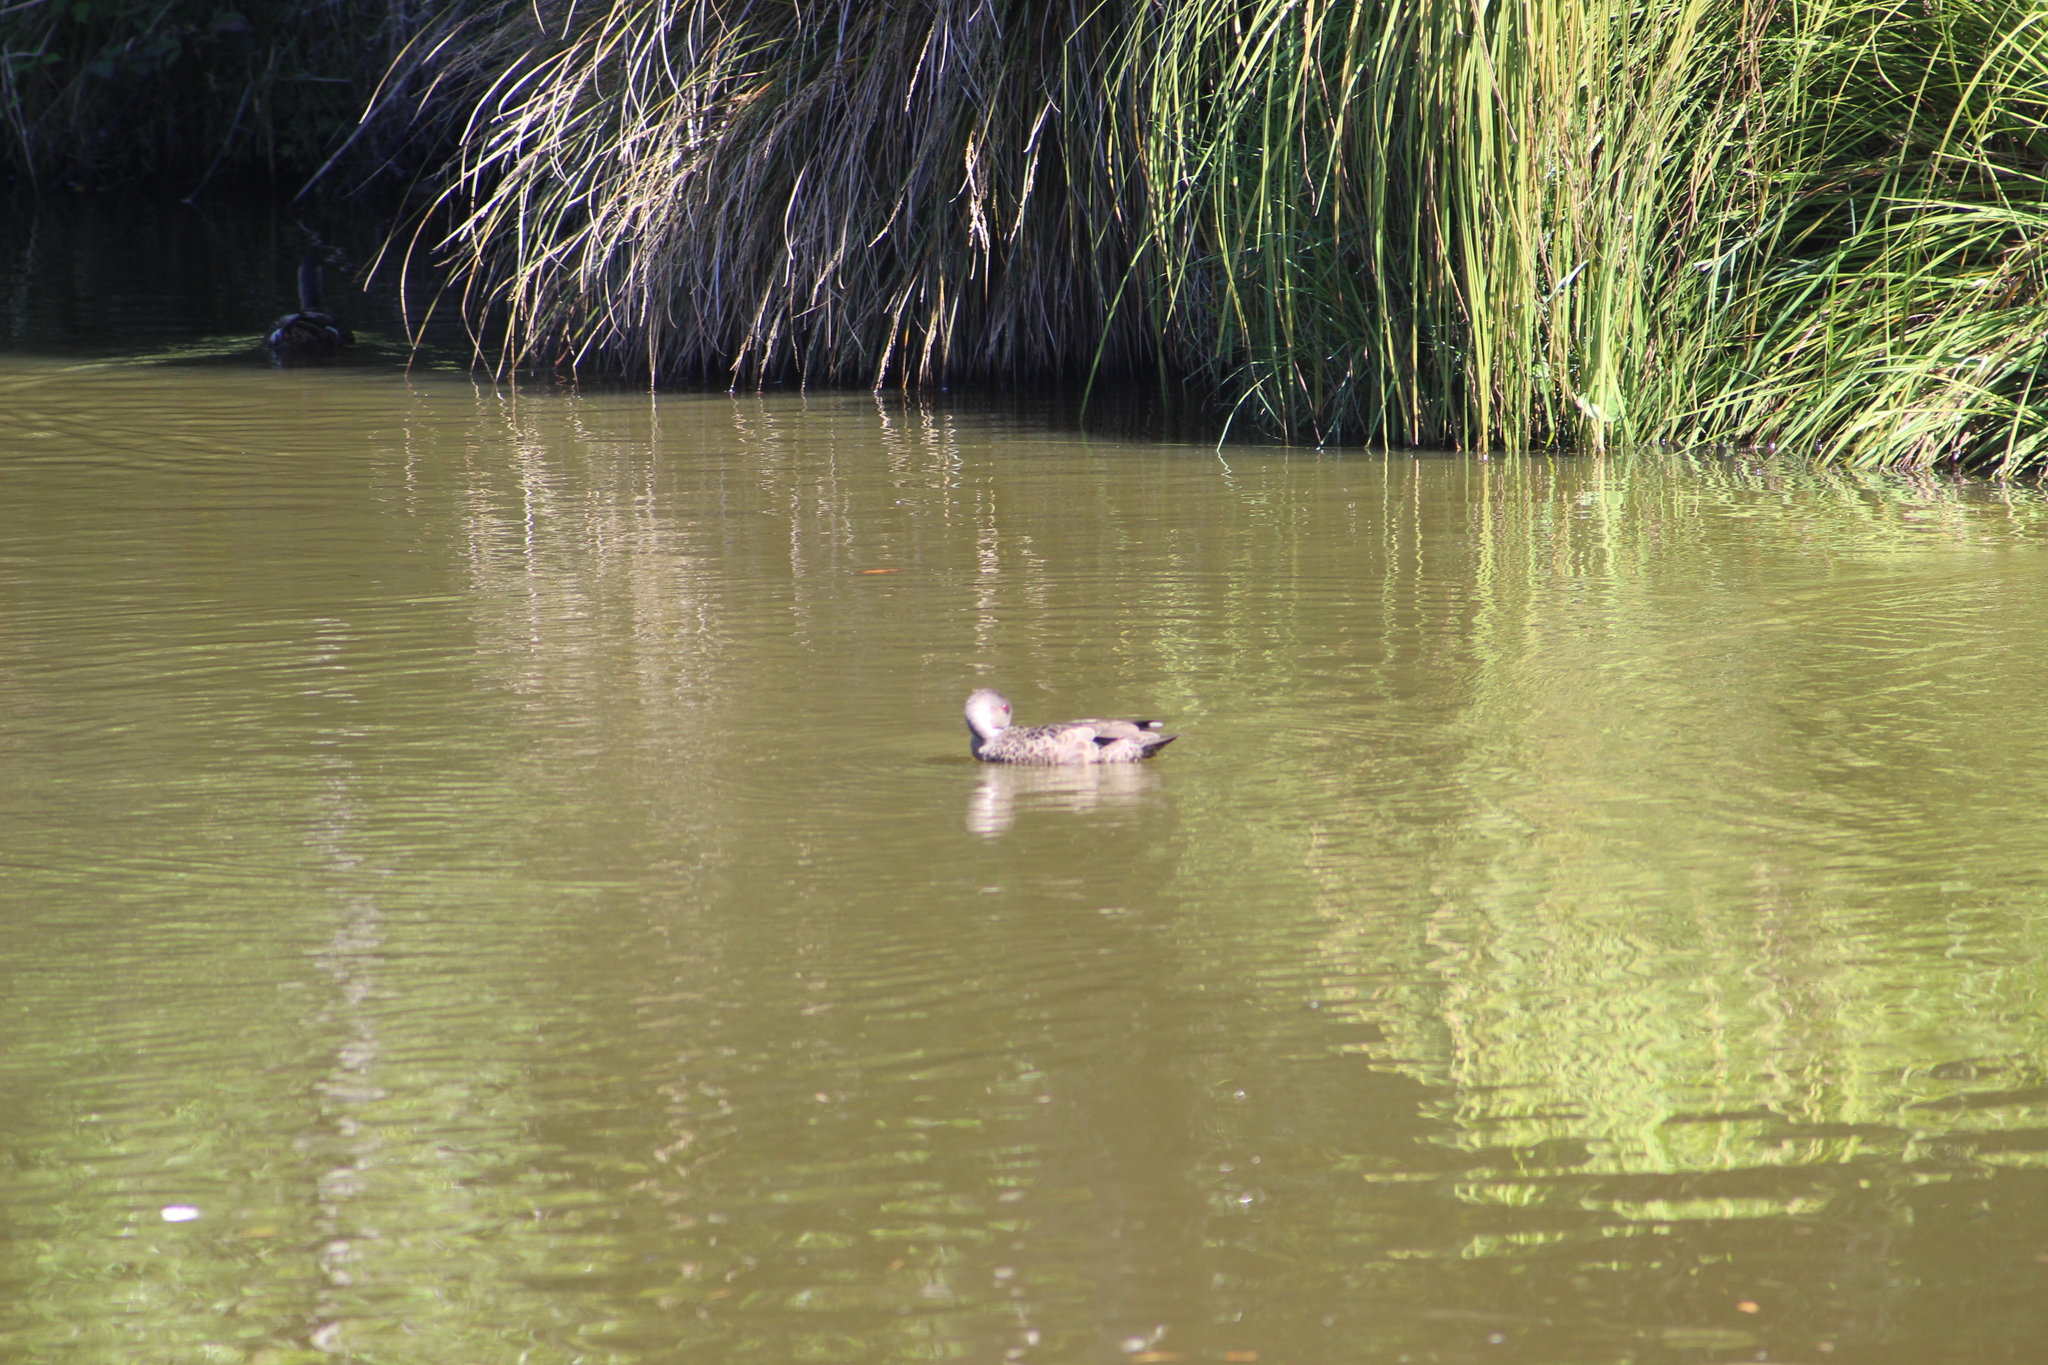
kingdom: Animalia
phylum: Chordata
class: Aves
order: Anseriformes
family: Anatidae
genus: Anas
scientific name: Anas gracilis
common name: Grey teal
